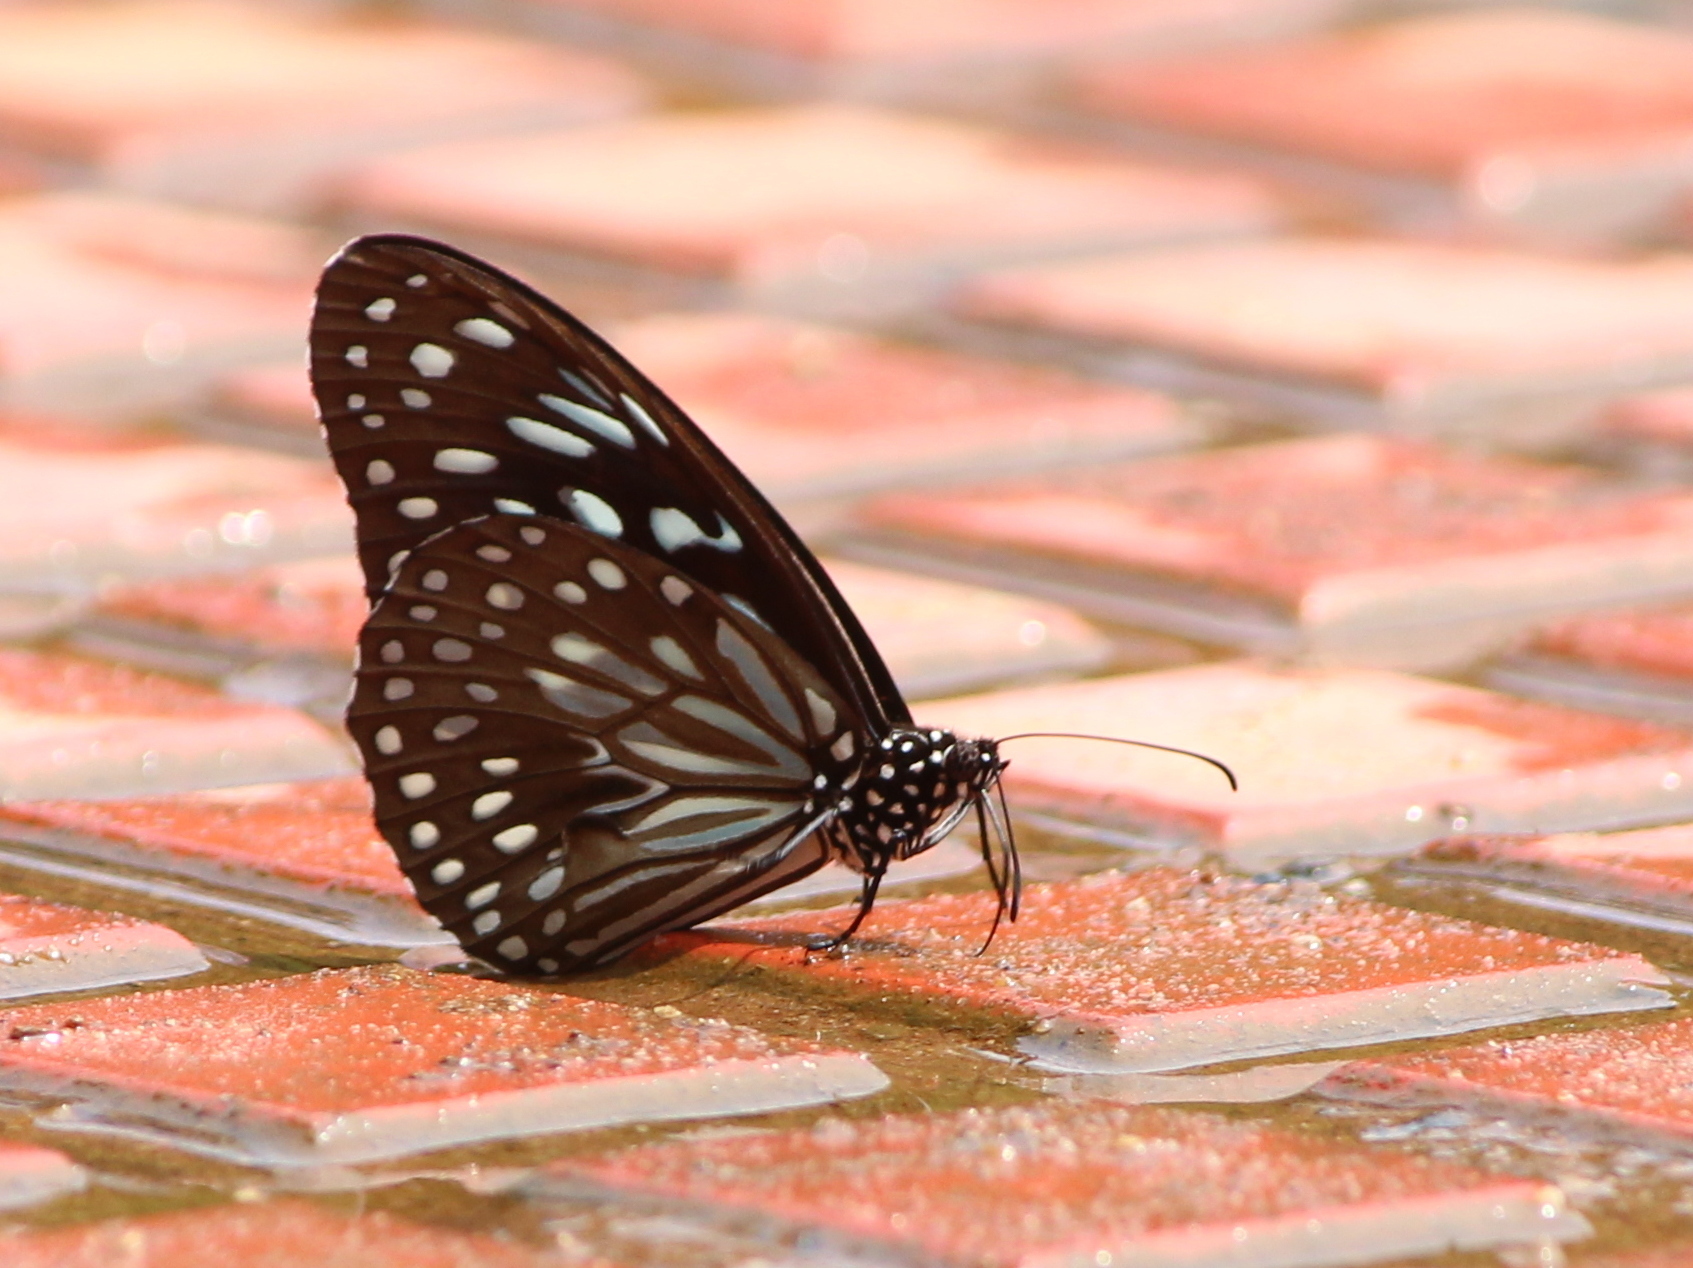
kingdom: Animalia
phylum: Arthropoda
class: Insecta
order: Lepidoptera
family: Nymphalidae
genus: Tirumala
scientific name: Tirumala septentrionis
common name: Dark blue tiger butterfly
